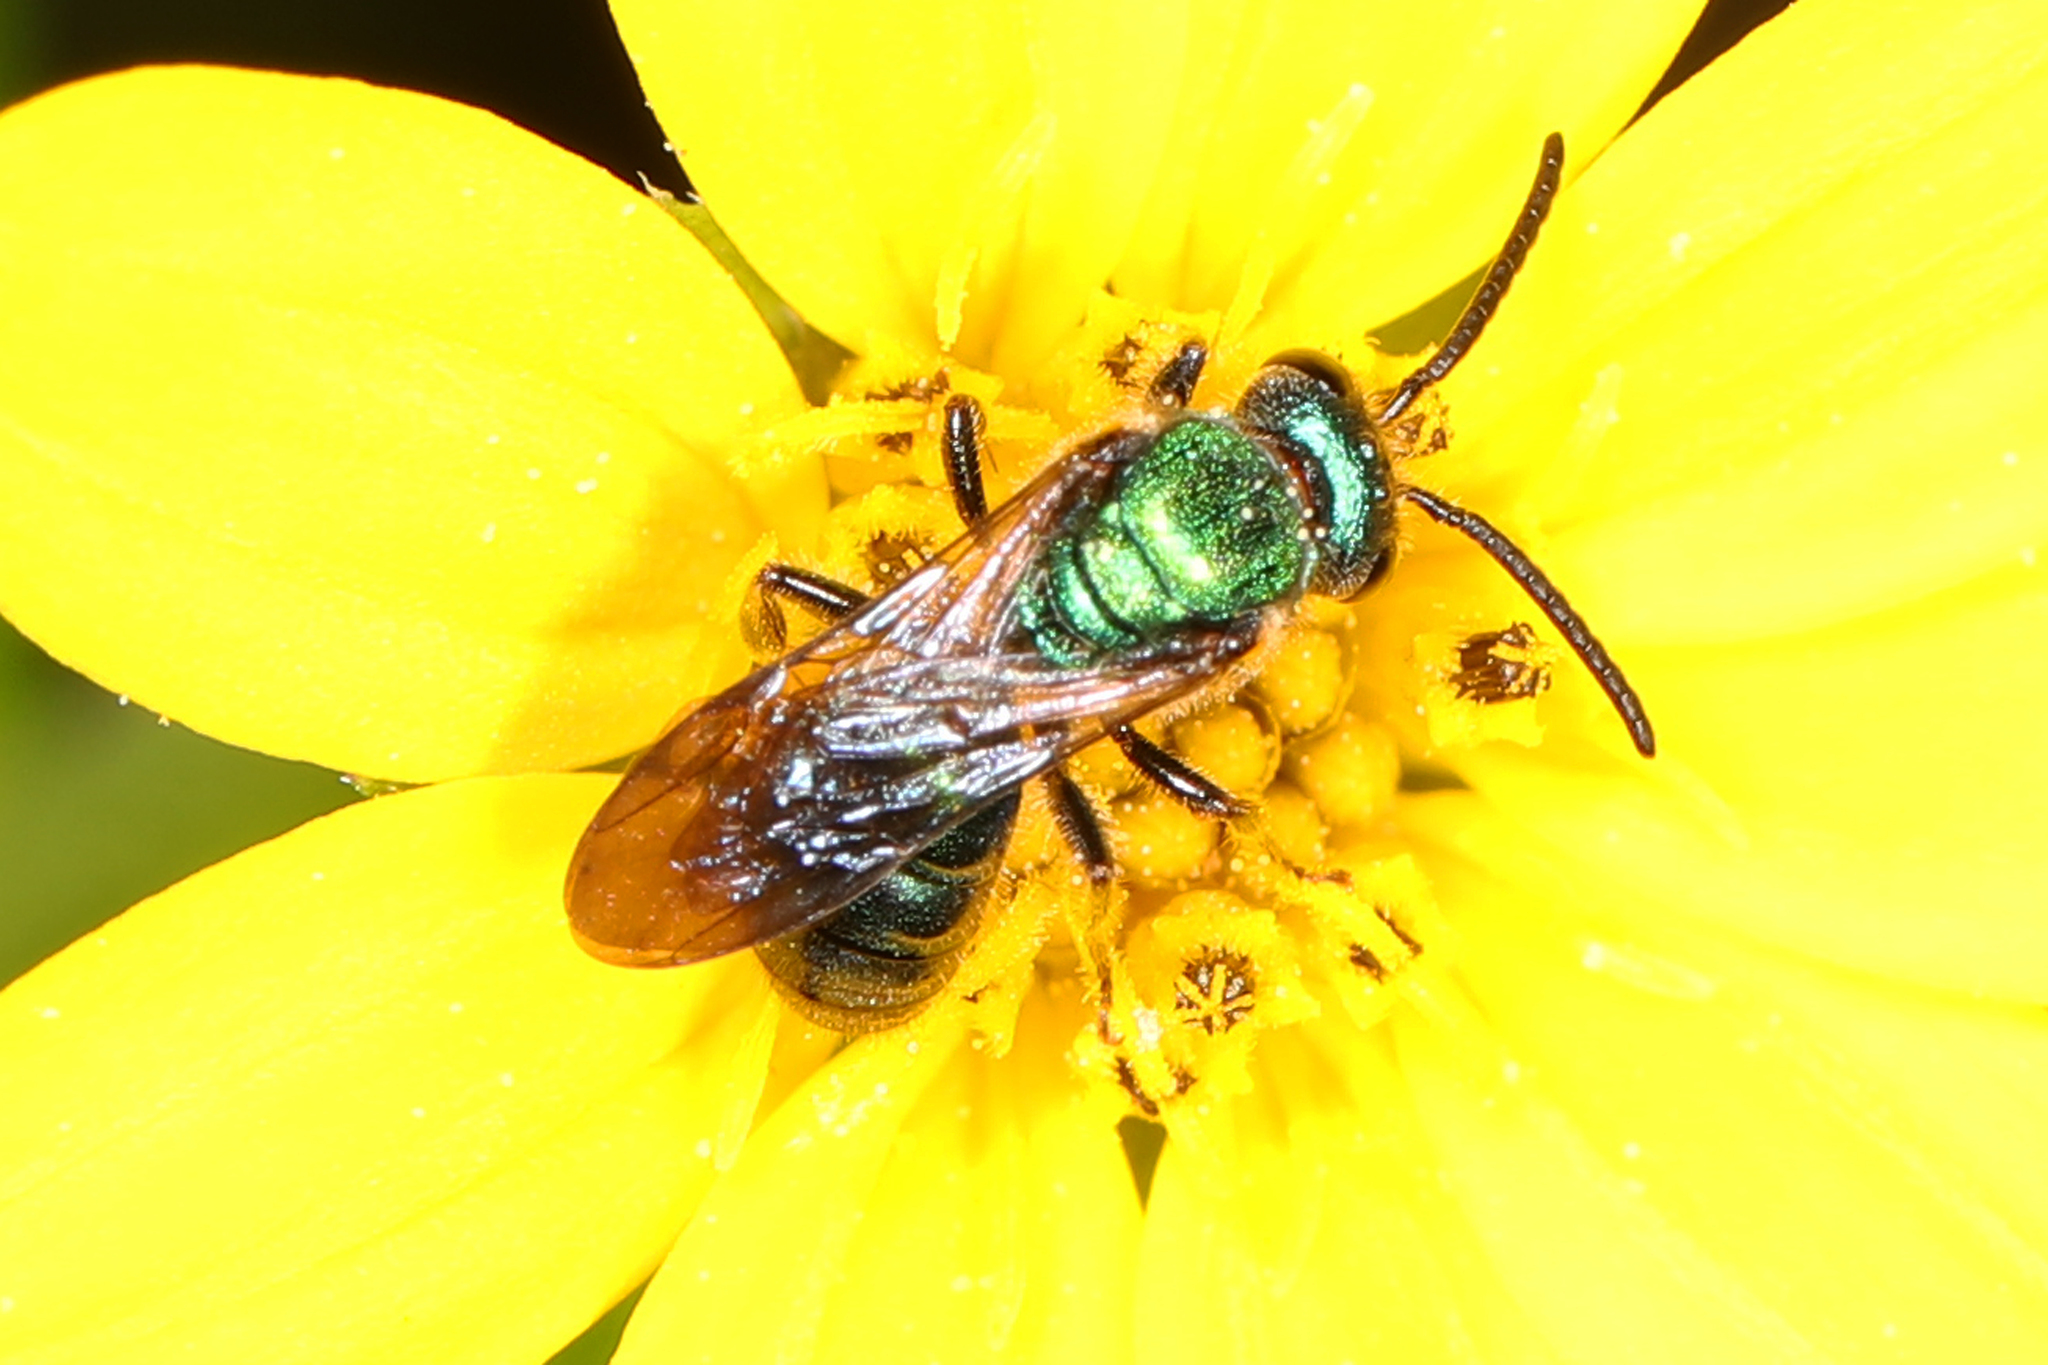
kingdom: Animalia
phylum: Arthropoda
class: Insecta
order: Hymenoptera
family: Halictidae
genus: Augochlora
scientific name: Augochlora pura
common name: Pure green sweat bee
